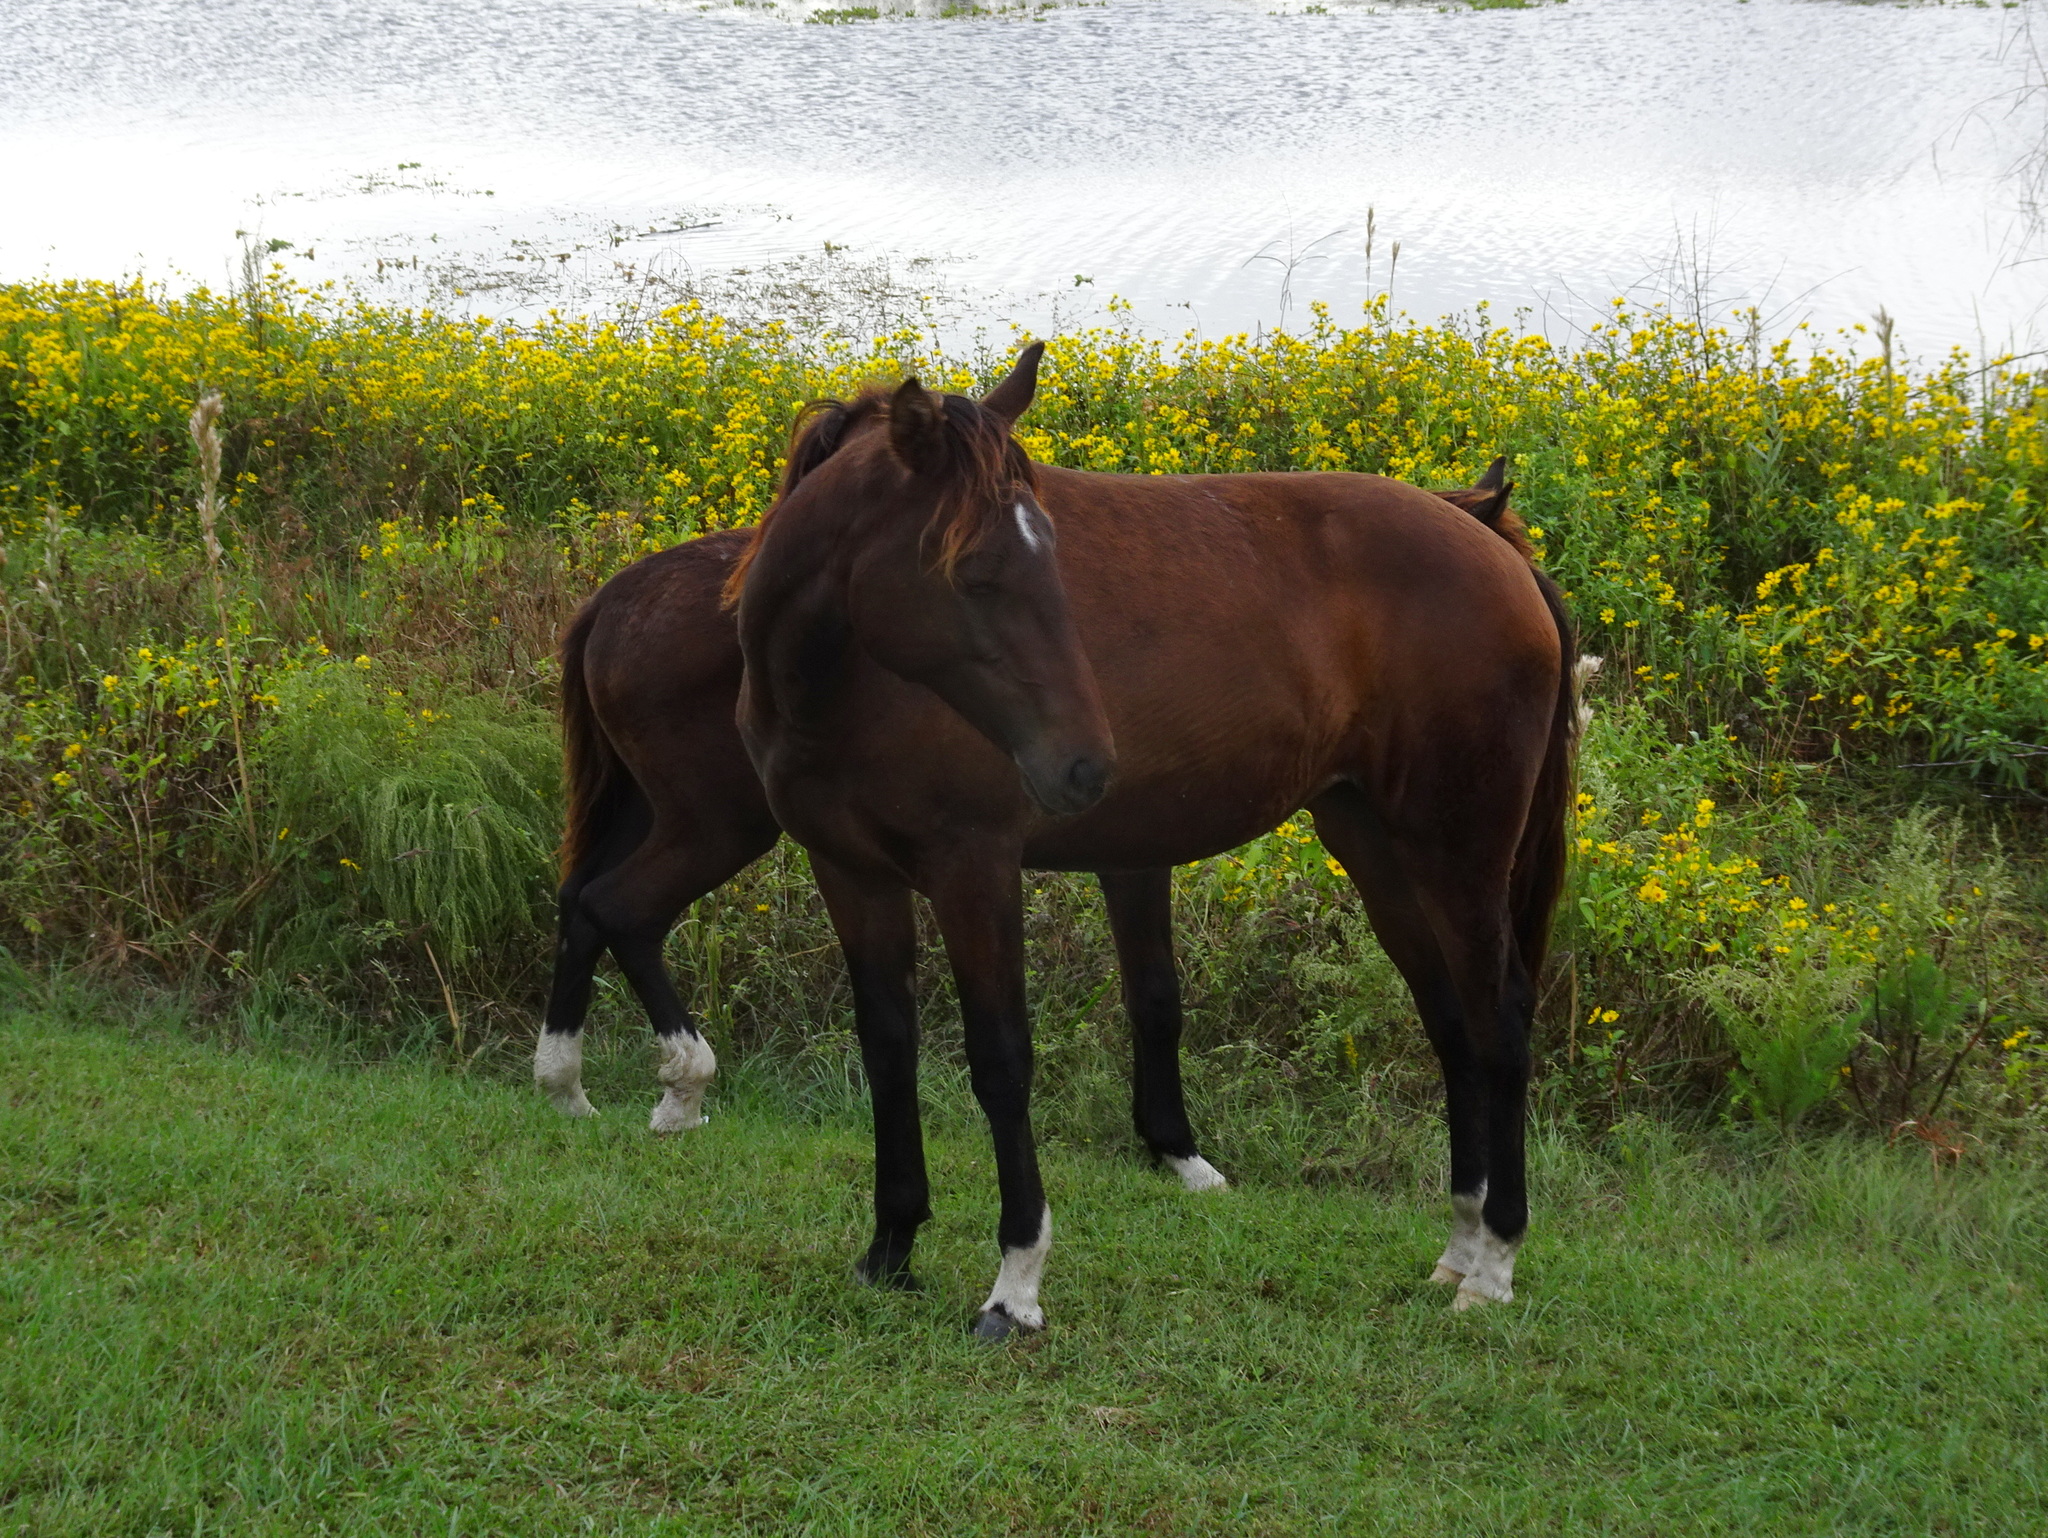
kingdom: Animalia
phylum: Chordata
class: Mammalia
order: Perissodactyla
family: Equidae
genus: Equus
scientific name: Equus caballus
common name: Horse
